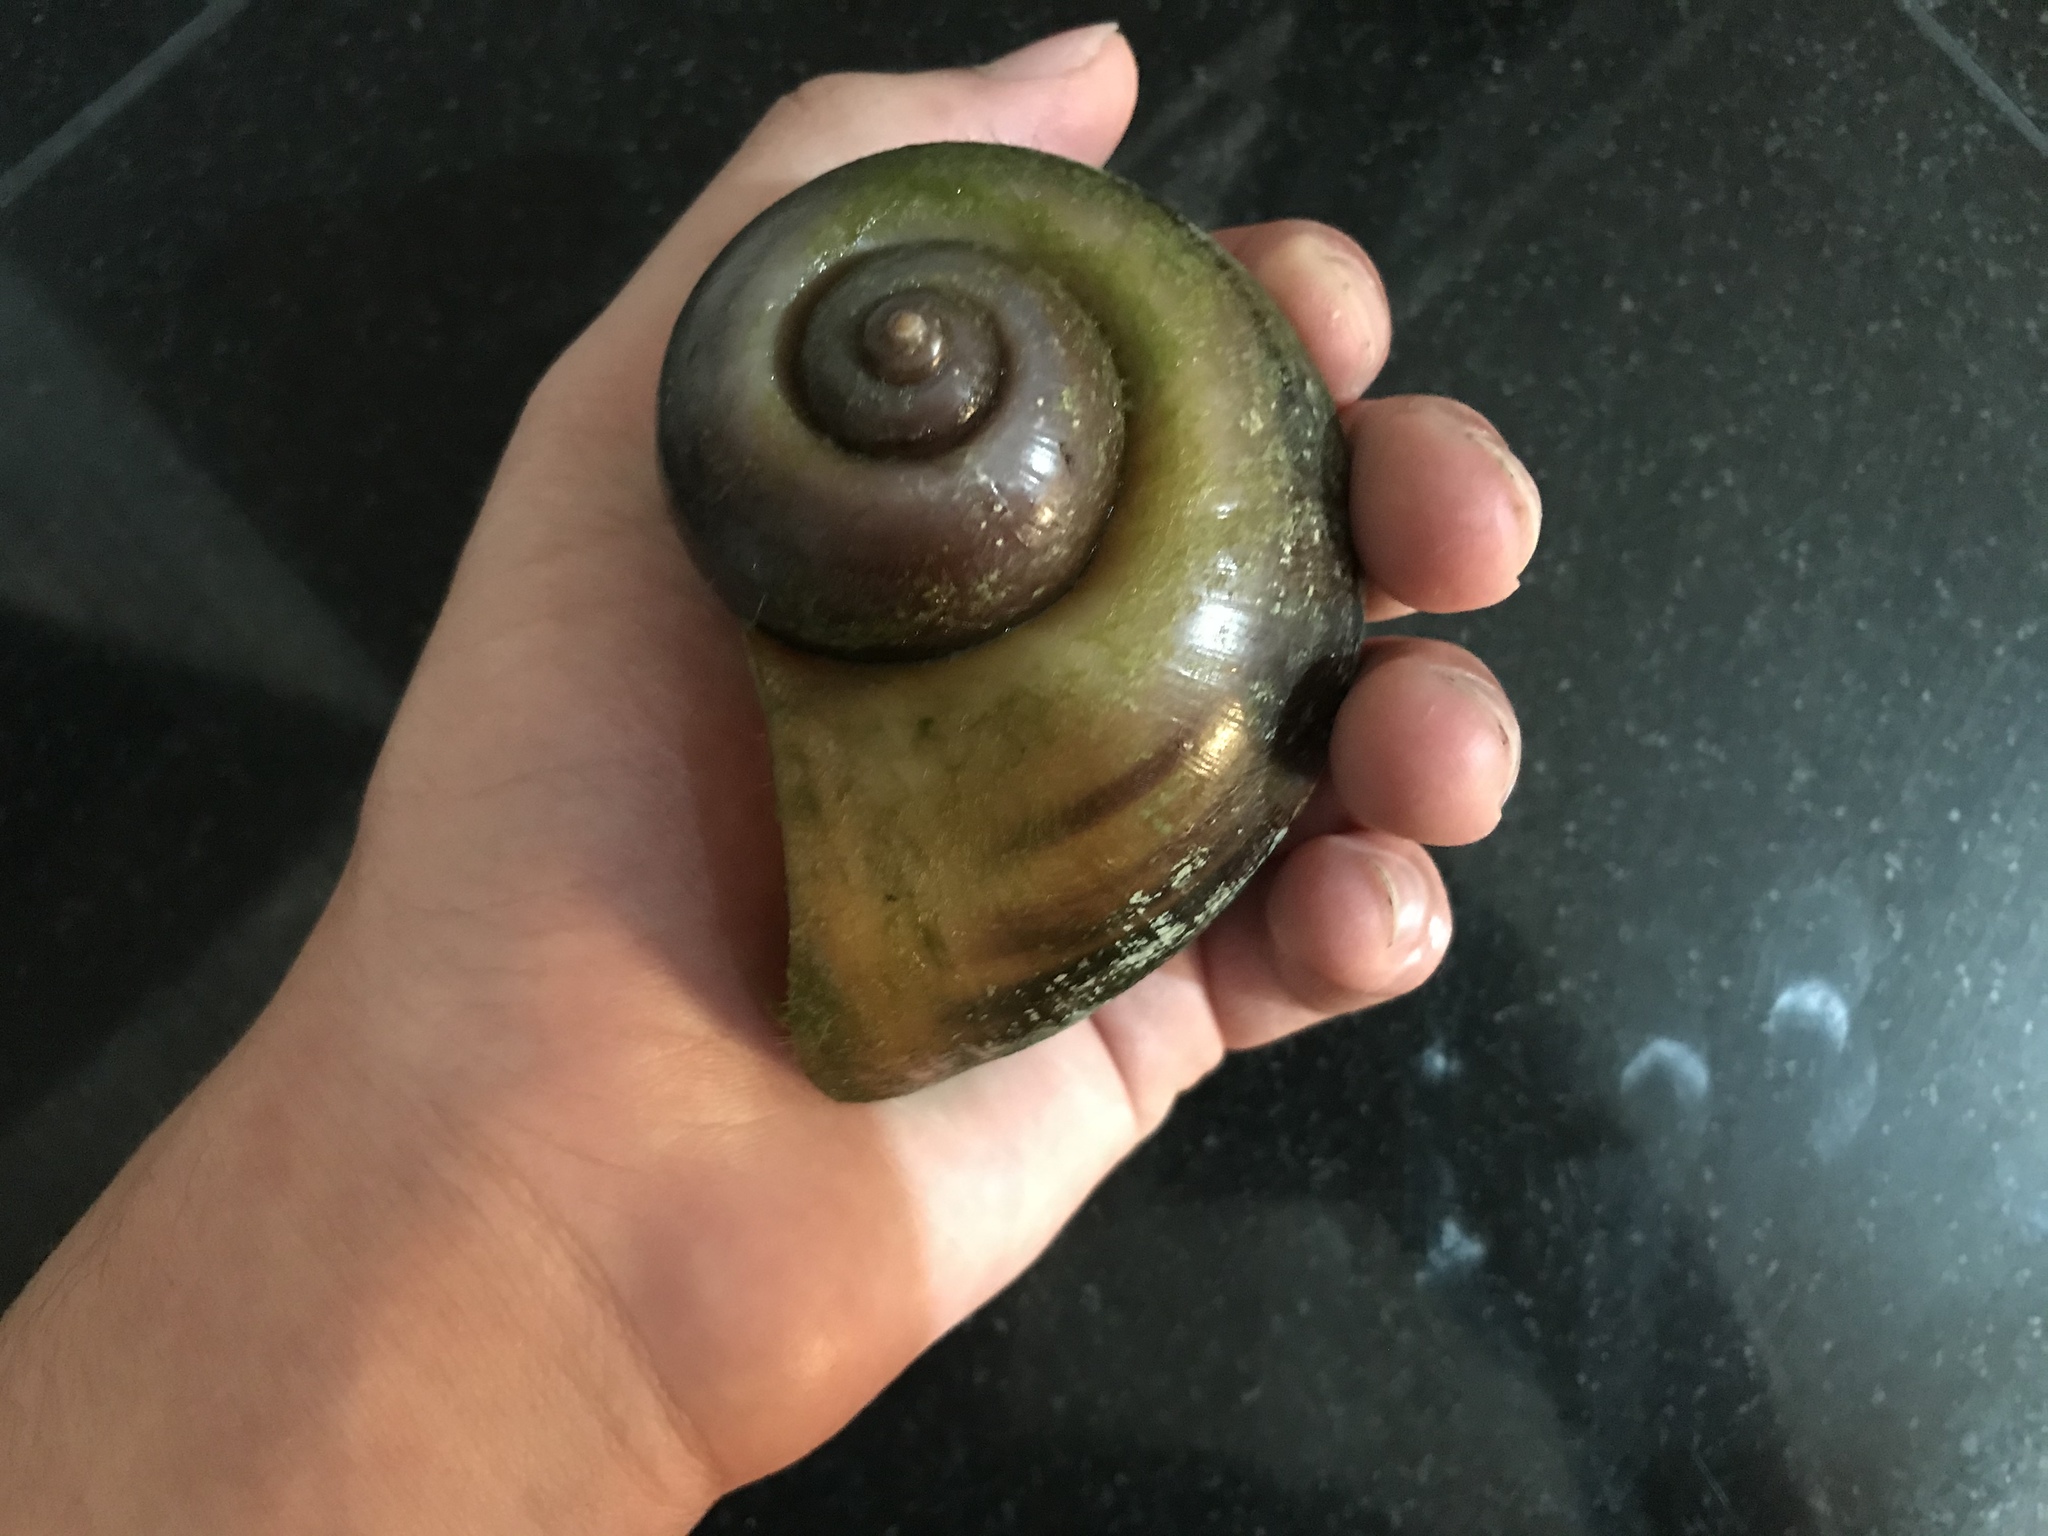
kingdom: Animalia
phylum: Mollusca
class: Gastropoda
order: Architaenioglossa
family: Ampullariidae
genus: Pomacea
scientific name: Pomacea maculata
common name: Giant applesnail
